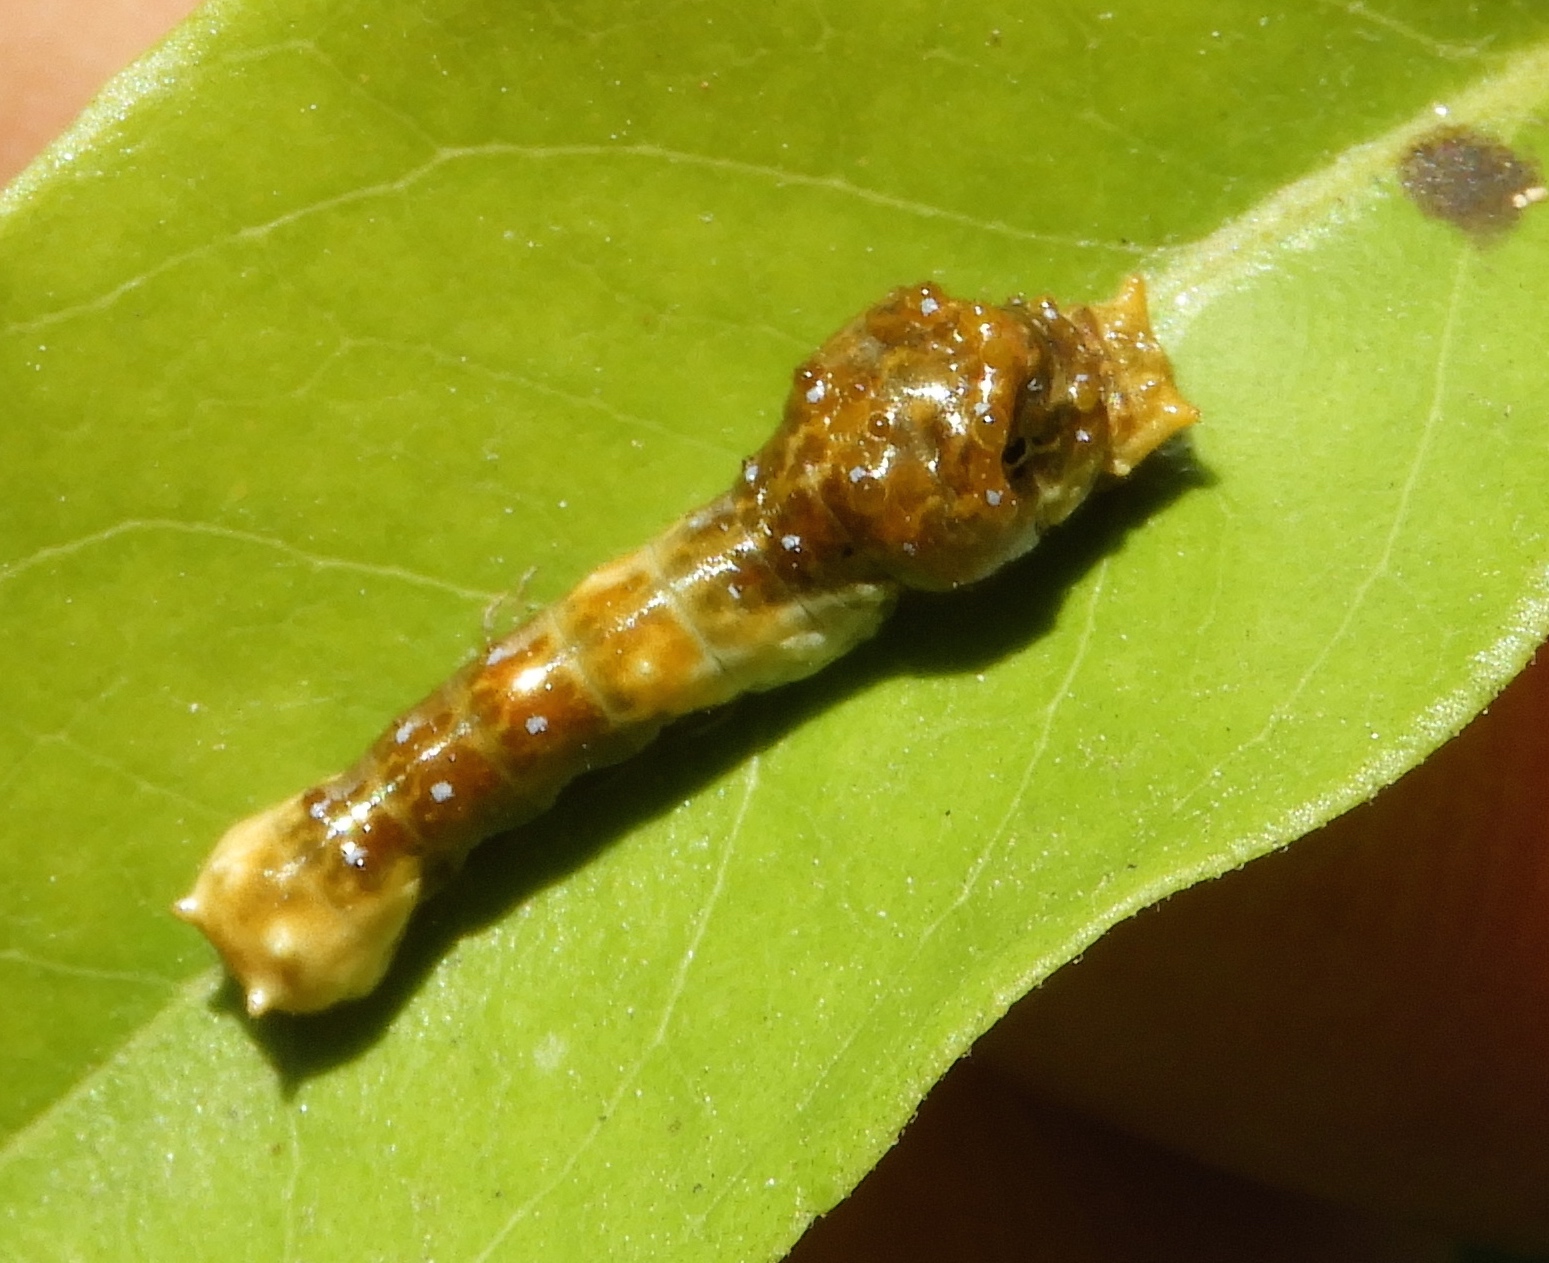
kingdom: Animalia
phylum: Arthropoda
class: Insecta
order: Lepidoptera
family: Papilionidae
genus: Papilio
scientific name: Papilio
